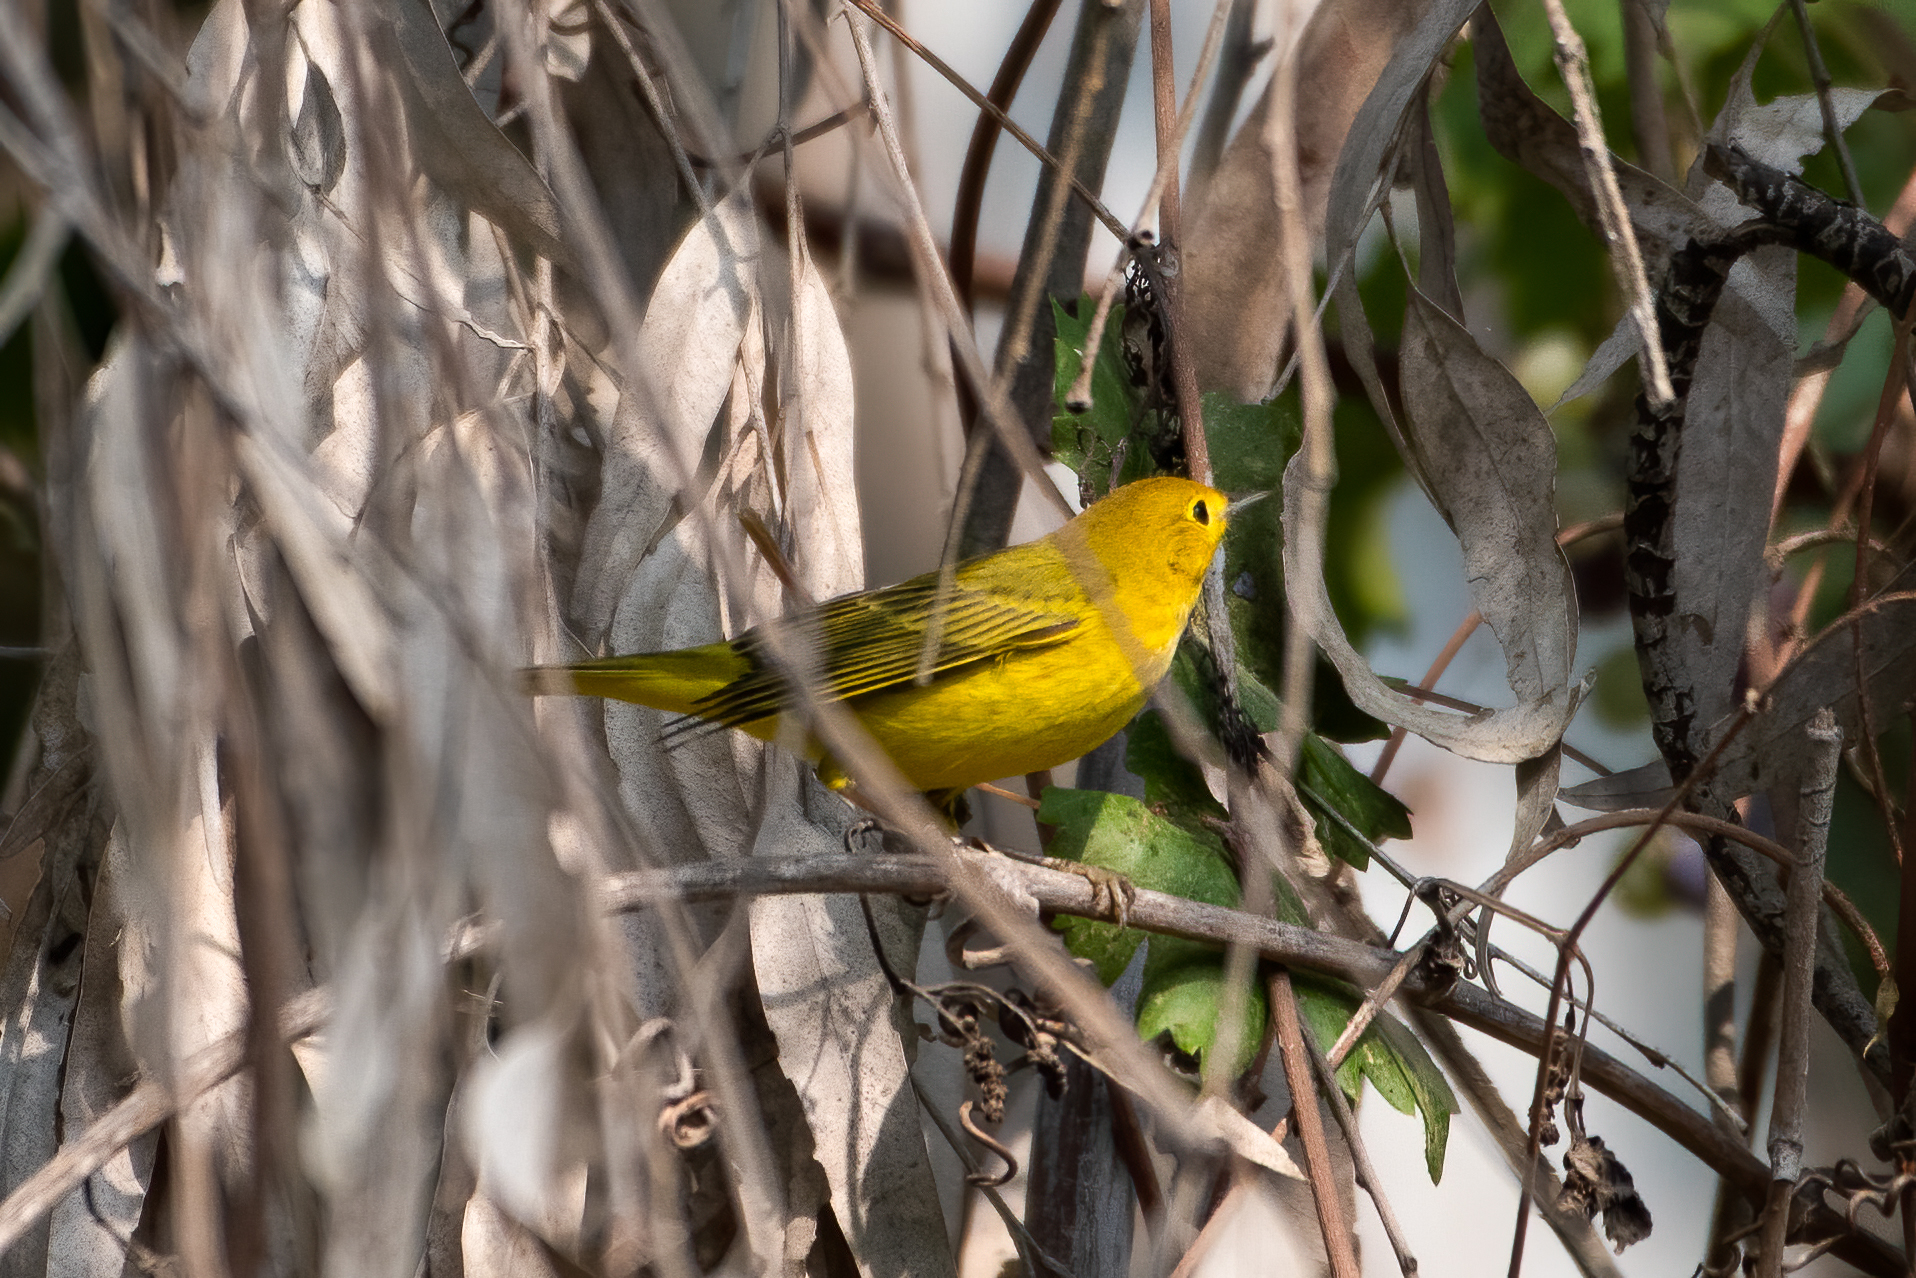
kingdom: Animalia
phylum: Chordata
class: Aves
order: Passeriformes
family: Parulidae
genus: Setophaga
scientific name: Setophaga petechia
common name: Yellow warbler
